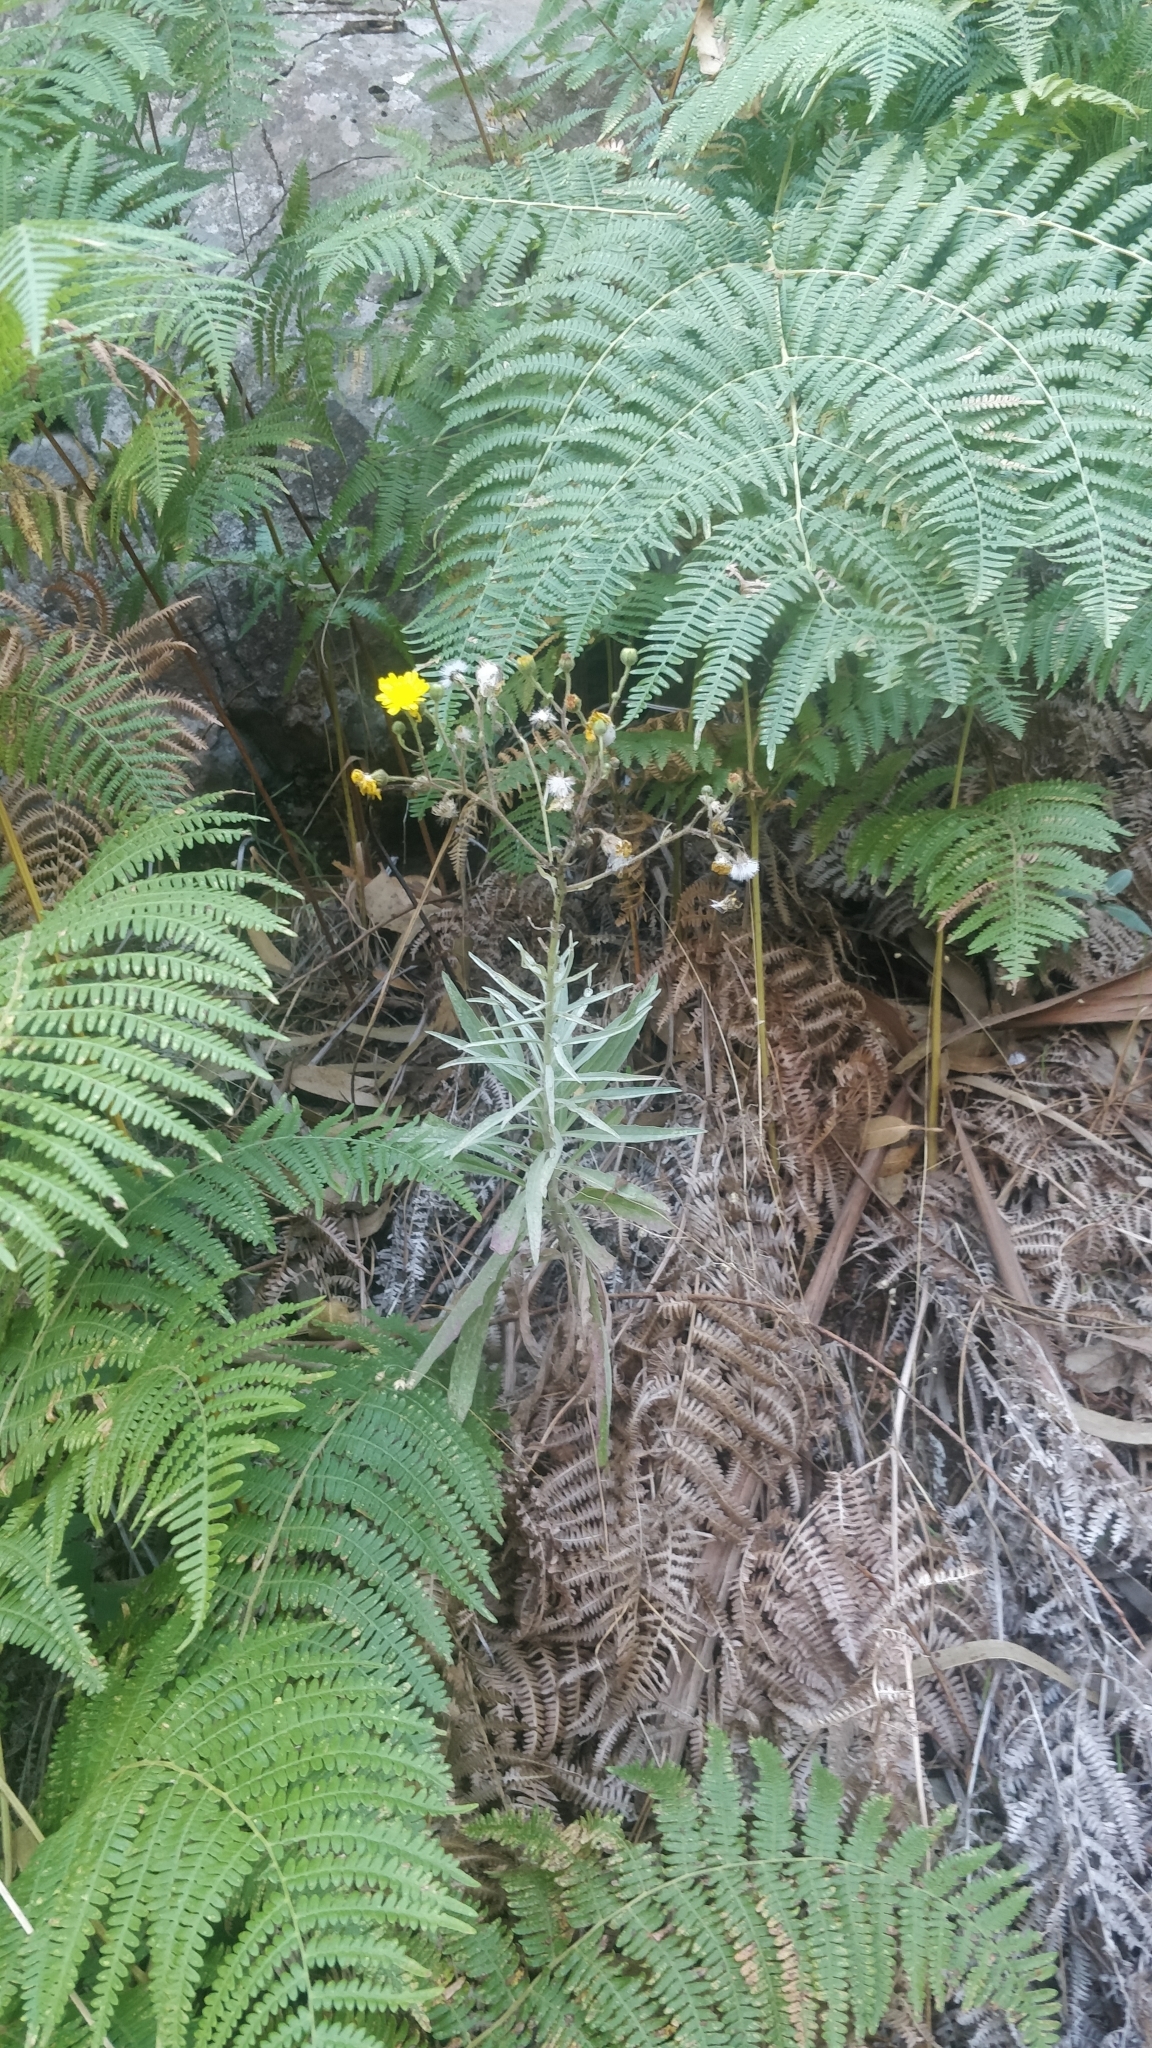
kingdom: Plantae
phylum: Tracheophyta
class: Magnoliopsida
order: Asterales
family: Asteraceae
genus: Andryala
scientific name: Andryala glandulosa
